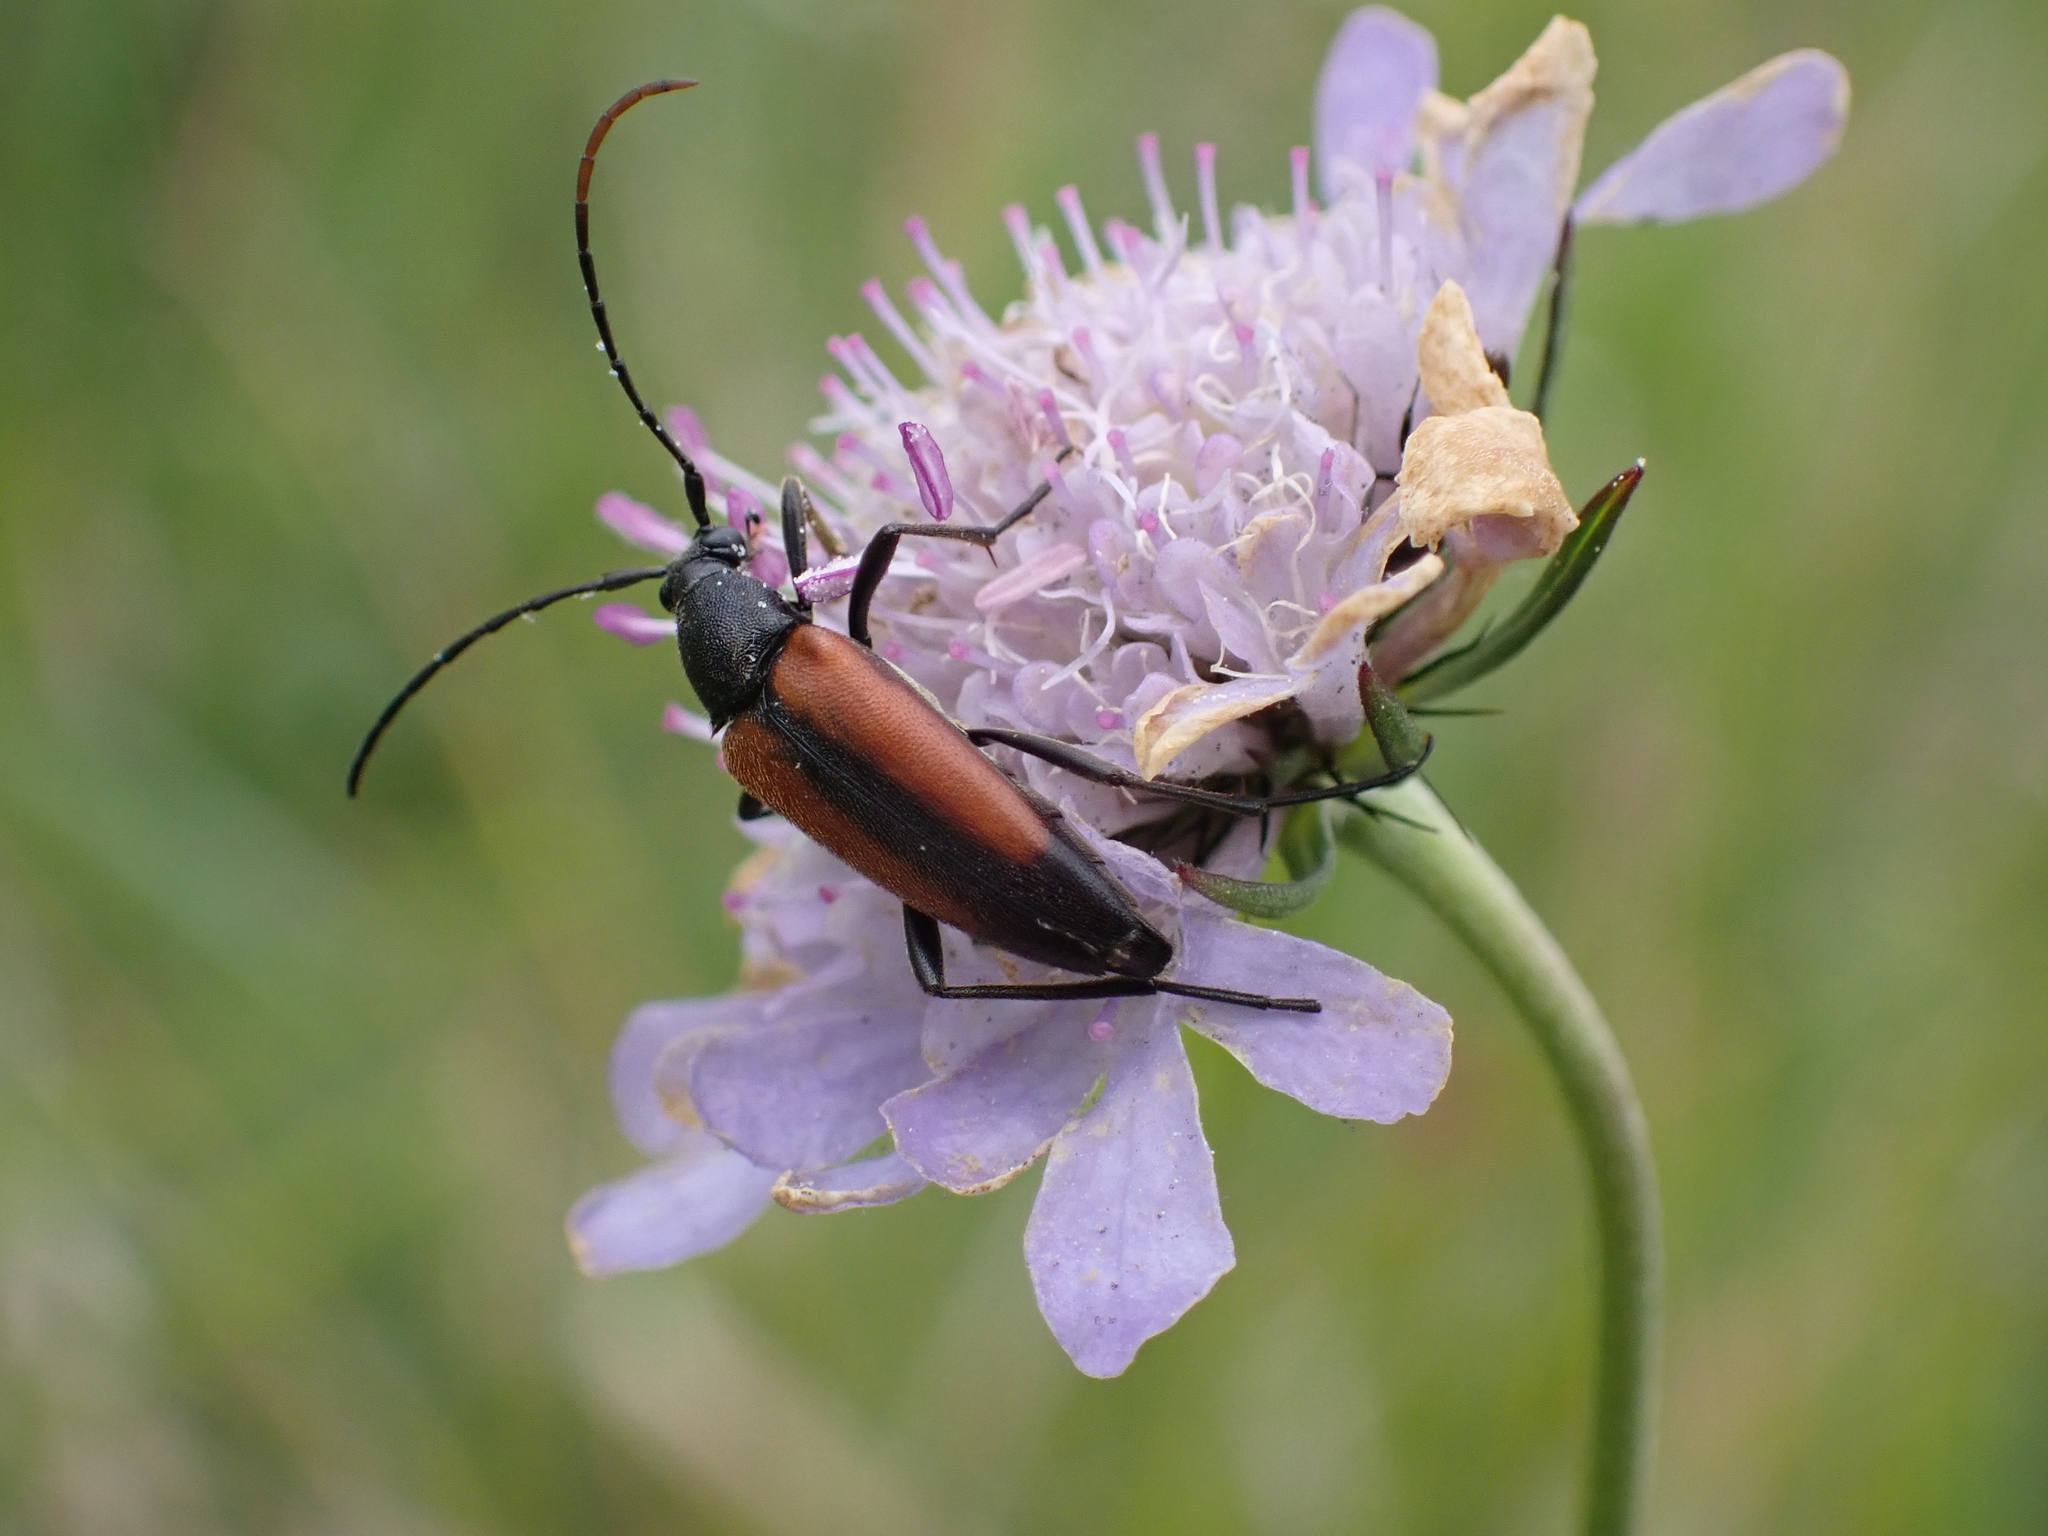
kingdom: Animalia
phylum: Arthropoda
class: Insecta
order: Coleoptera
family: Cerambycidae
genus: Stenurella
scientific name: Stenurella melanura
